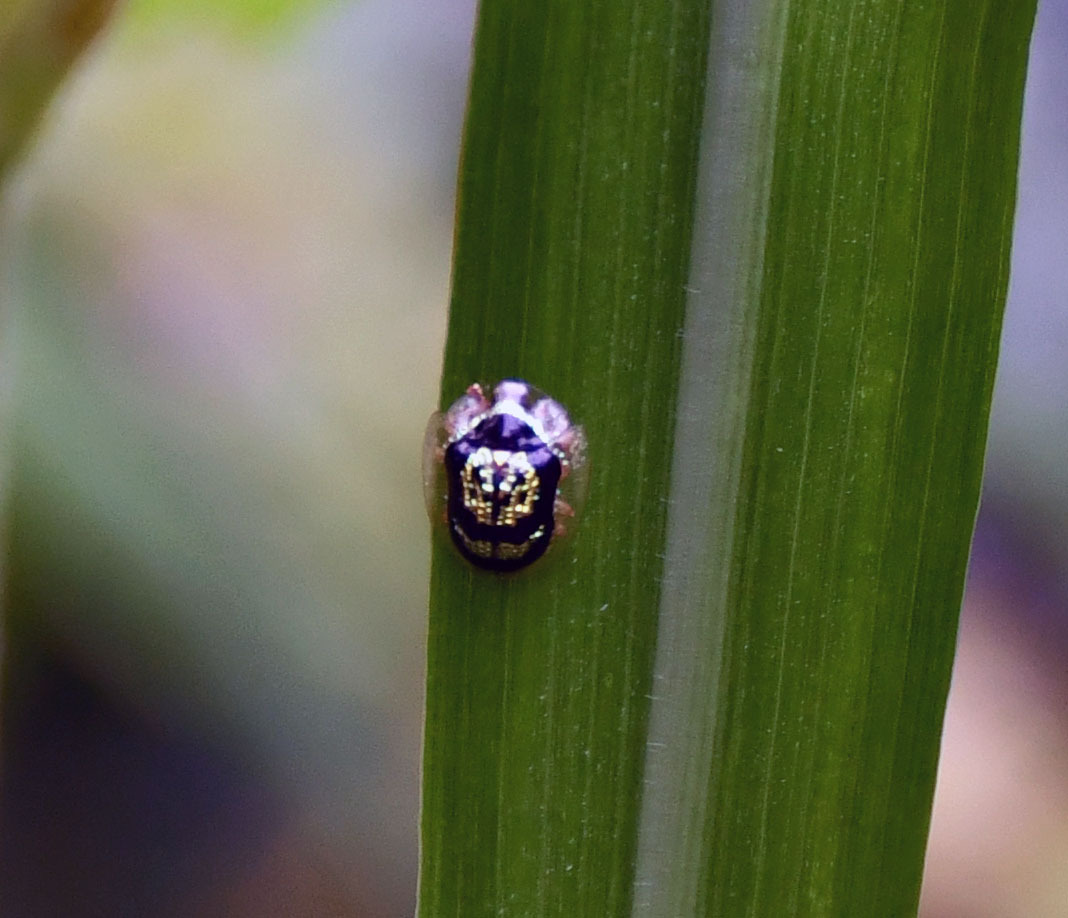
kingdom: Animalia
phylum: Arthropoda
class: Insecta
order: Coleoptera
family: Chrysomelidae
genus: Cteisella
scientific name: Cteisella signatifera
